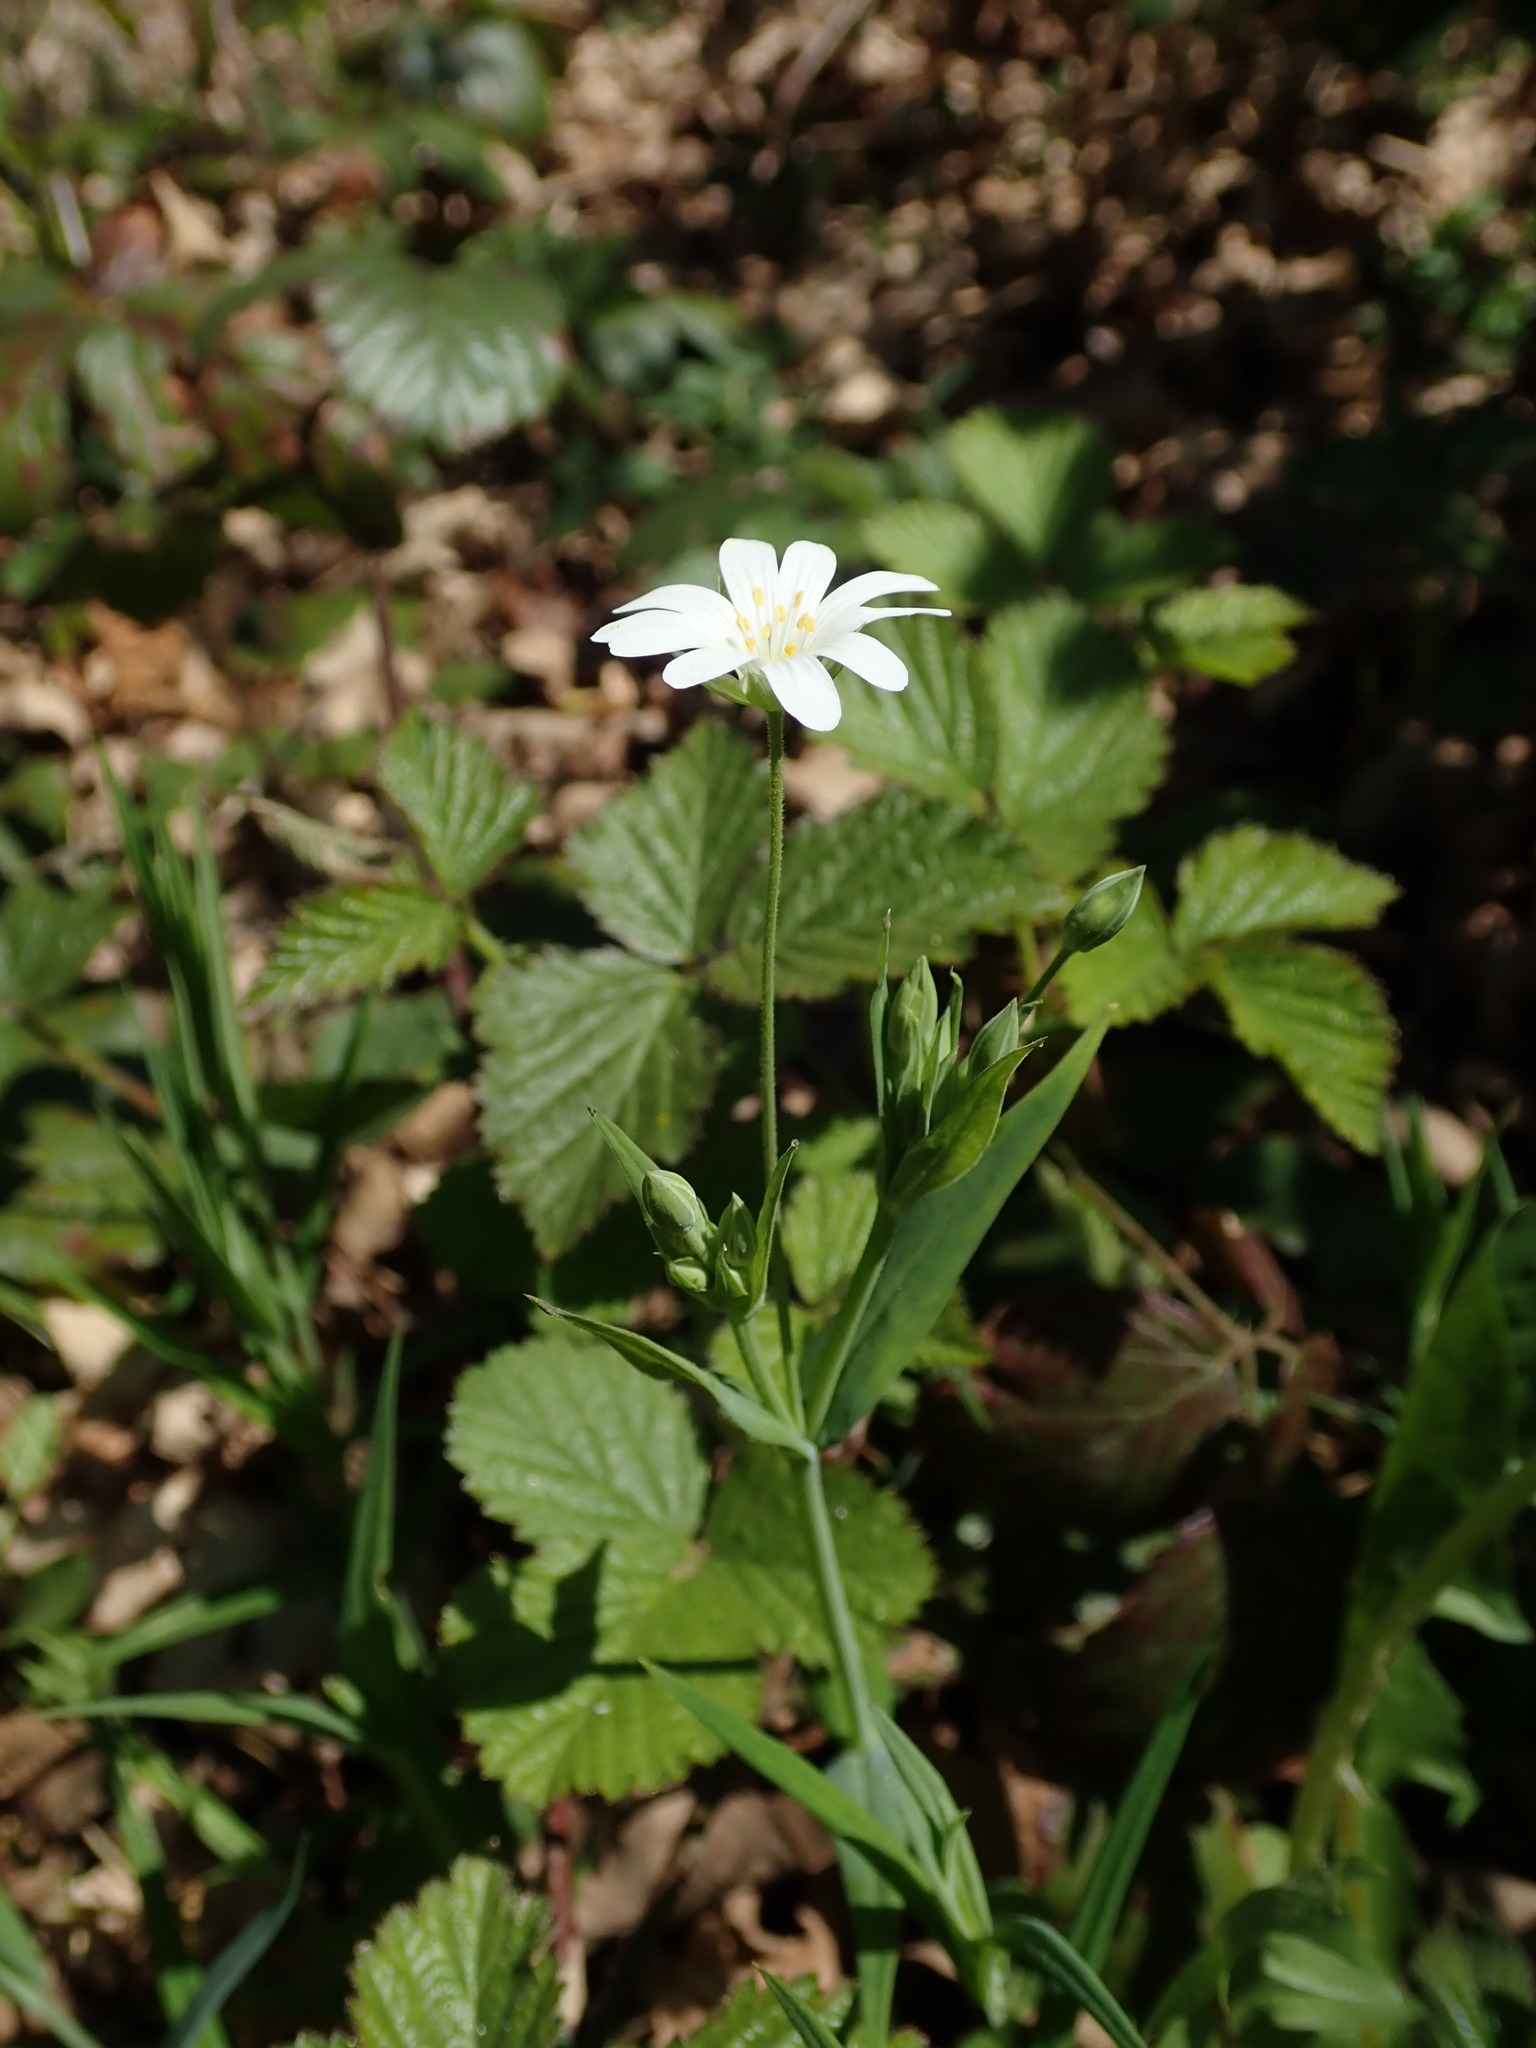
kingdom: Plantae
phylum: Tracheophyta
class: Magnoliopsida
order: Caryophyllales
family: Caryophyllaceae
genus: Rabelera
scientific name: Rabelera holostea
